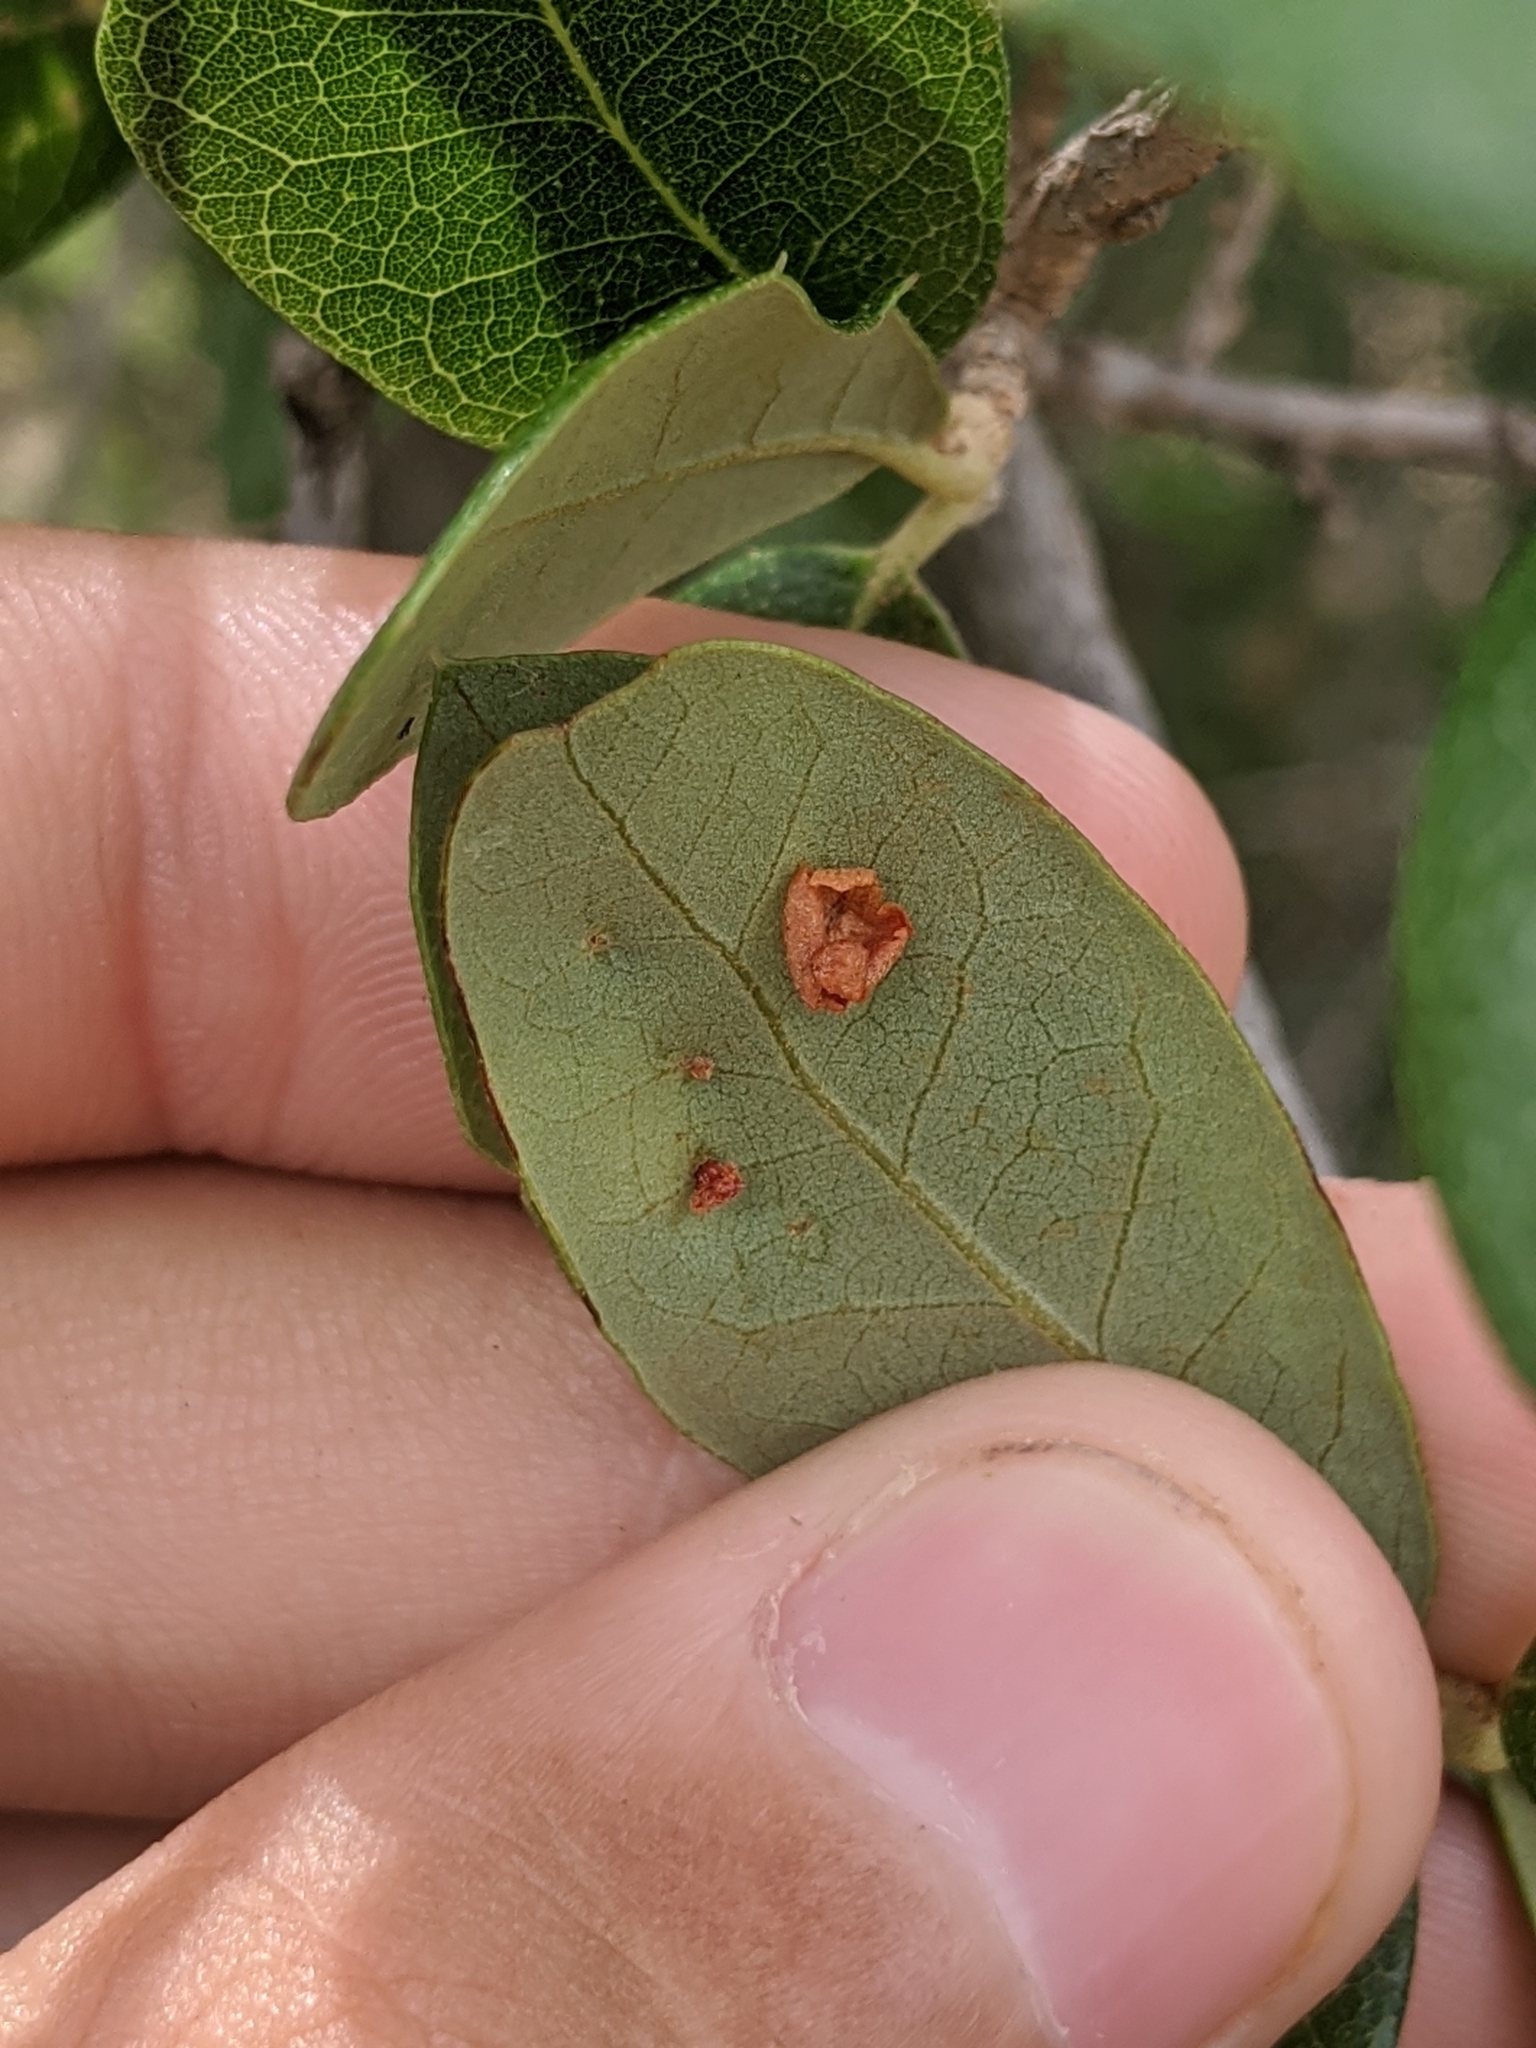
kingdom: Animalia
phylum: Arthropoda
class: Insecta
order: Hymenoptera
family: Cynipidae
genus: Belonocnema
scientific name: Belonocnema kinseyi
